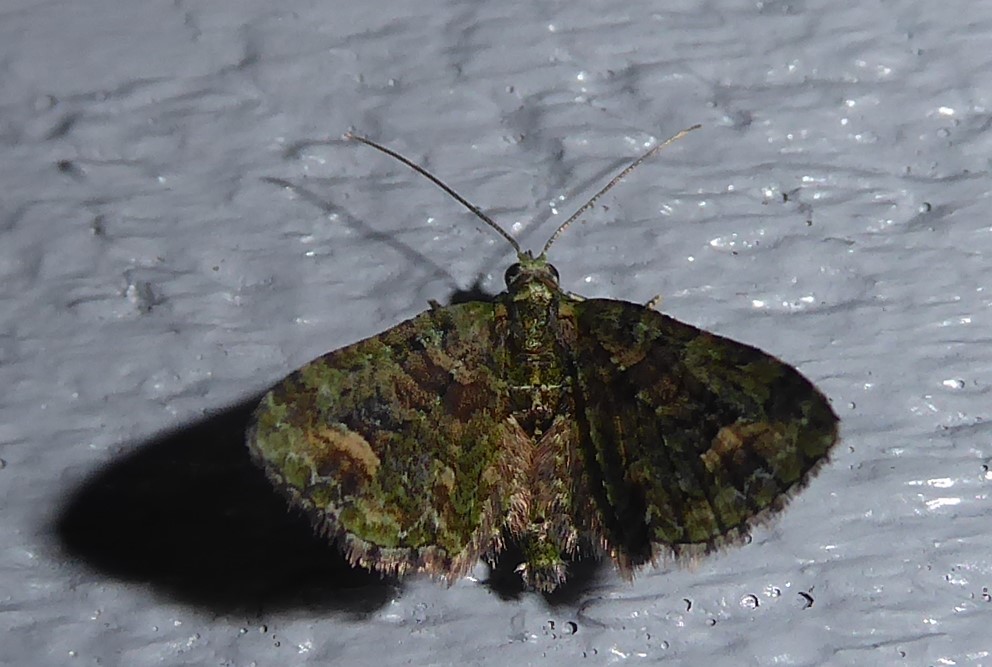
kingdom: Animalia
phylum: Arthropoda
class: Insecta
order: Lepidoptera
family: Geometridae
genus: Idaea
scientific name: Idaea mutanda
